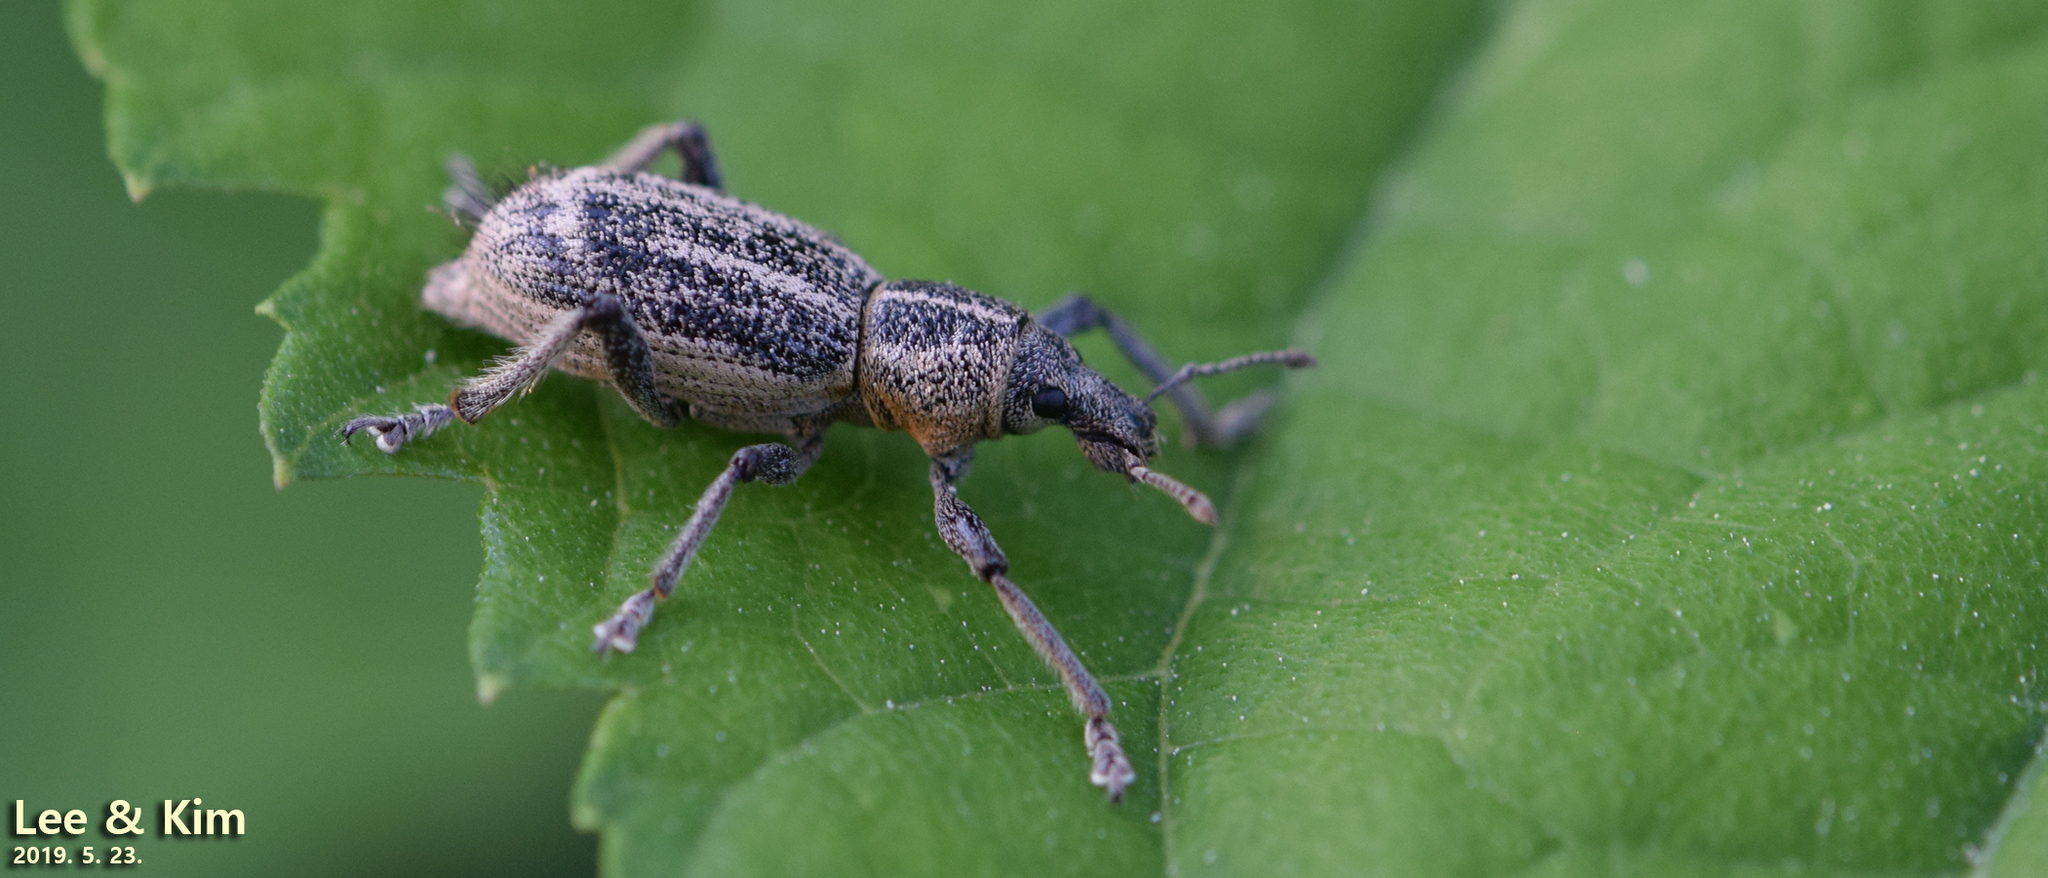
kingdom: Animalia
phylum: Arthropoda
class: Insecta
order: Coleoptera
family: Curculionidae
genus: Enaptorhinus
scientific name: Enaptorhinus granulatus
